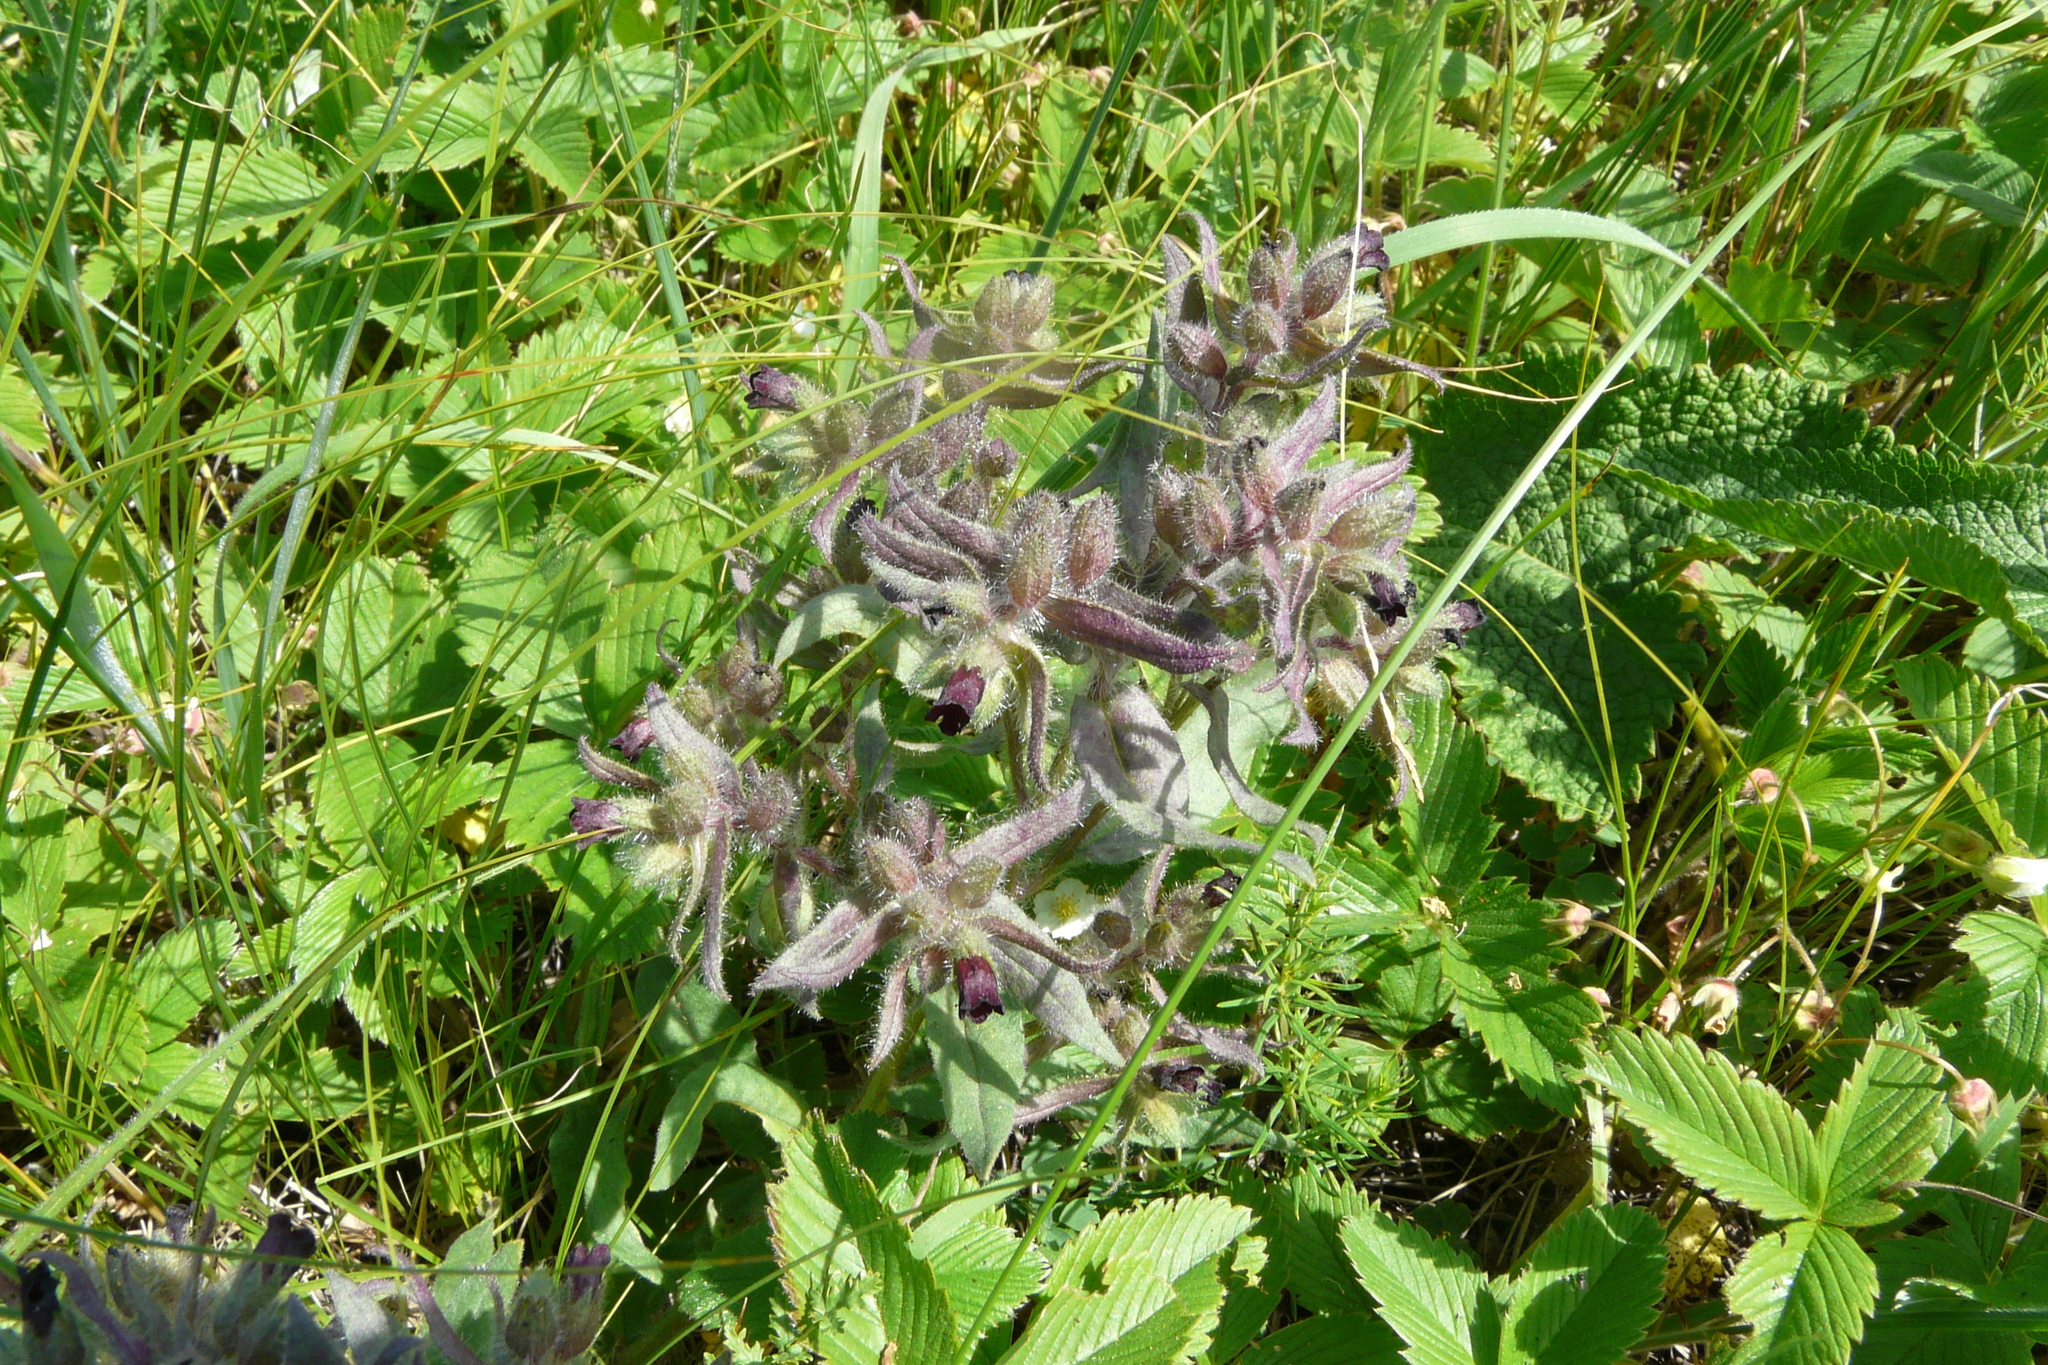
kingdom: Plantae
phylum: Tracheophyta
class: Magnoliopsida
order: Boraginales
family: Boraginaceae
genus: Nonea
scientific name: Nonea pulla
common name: Brown nonea
